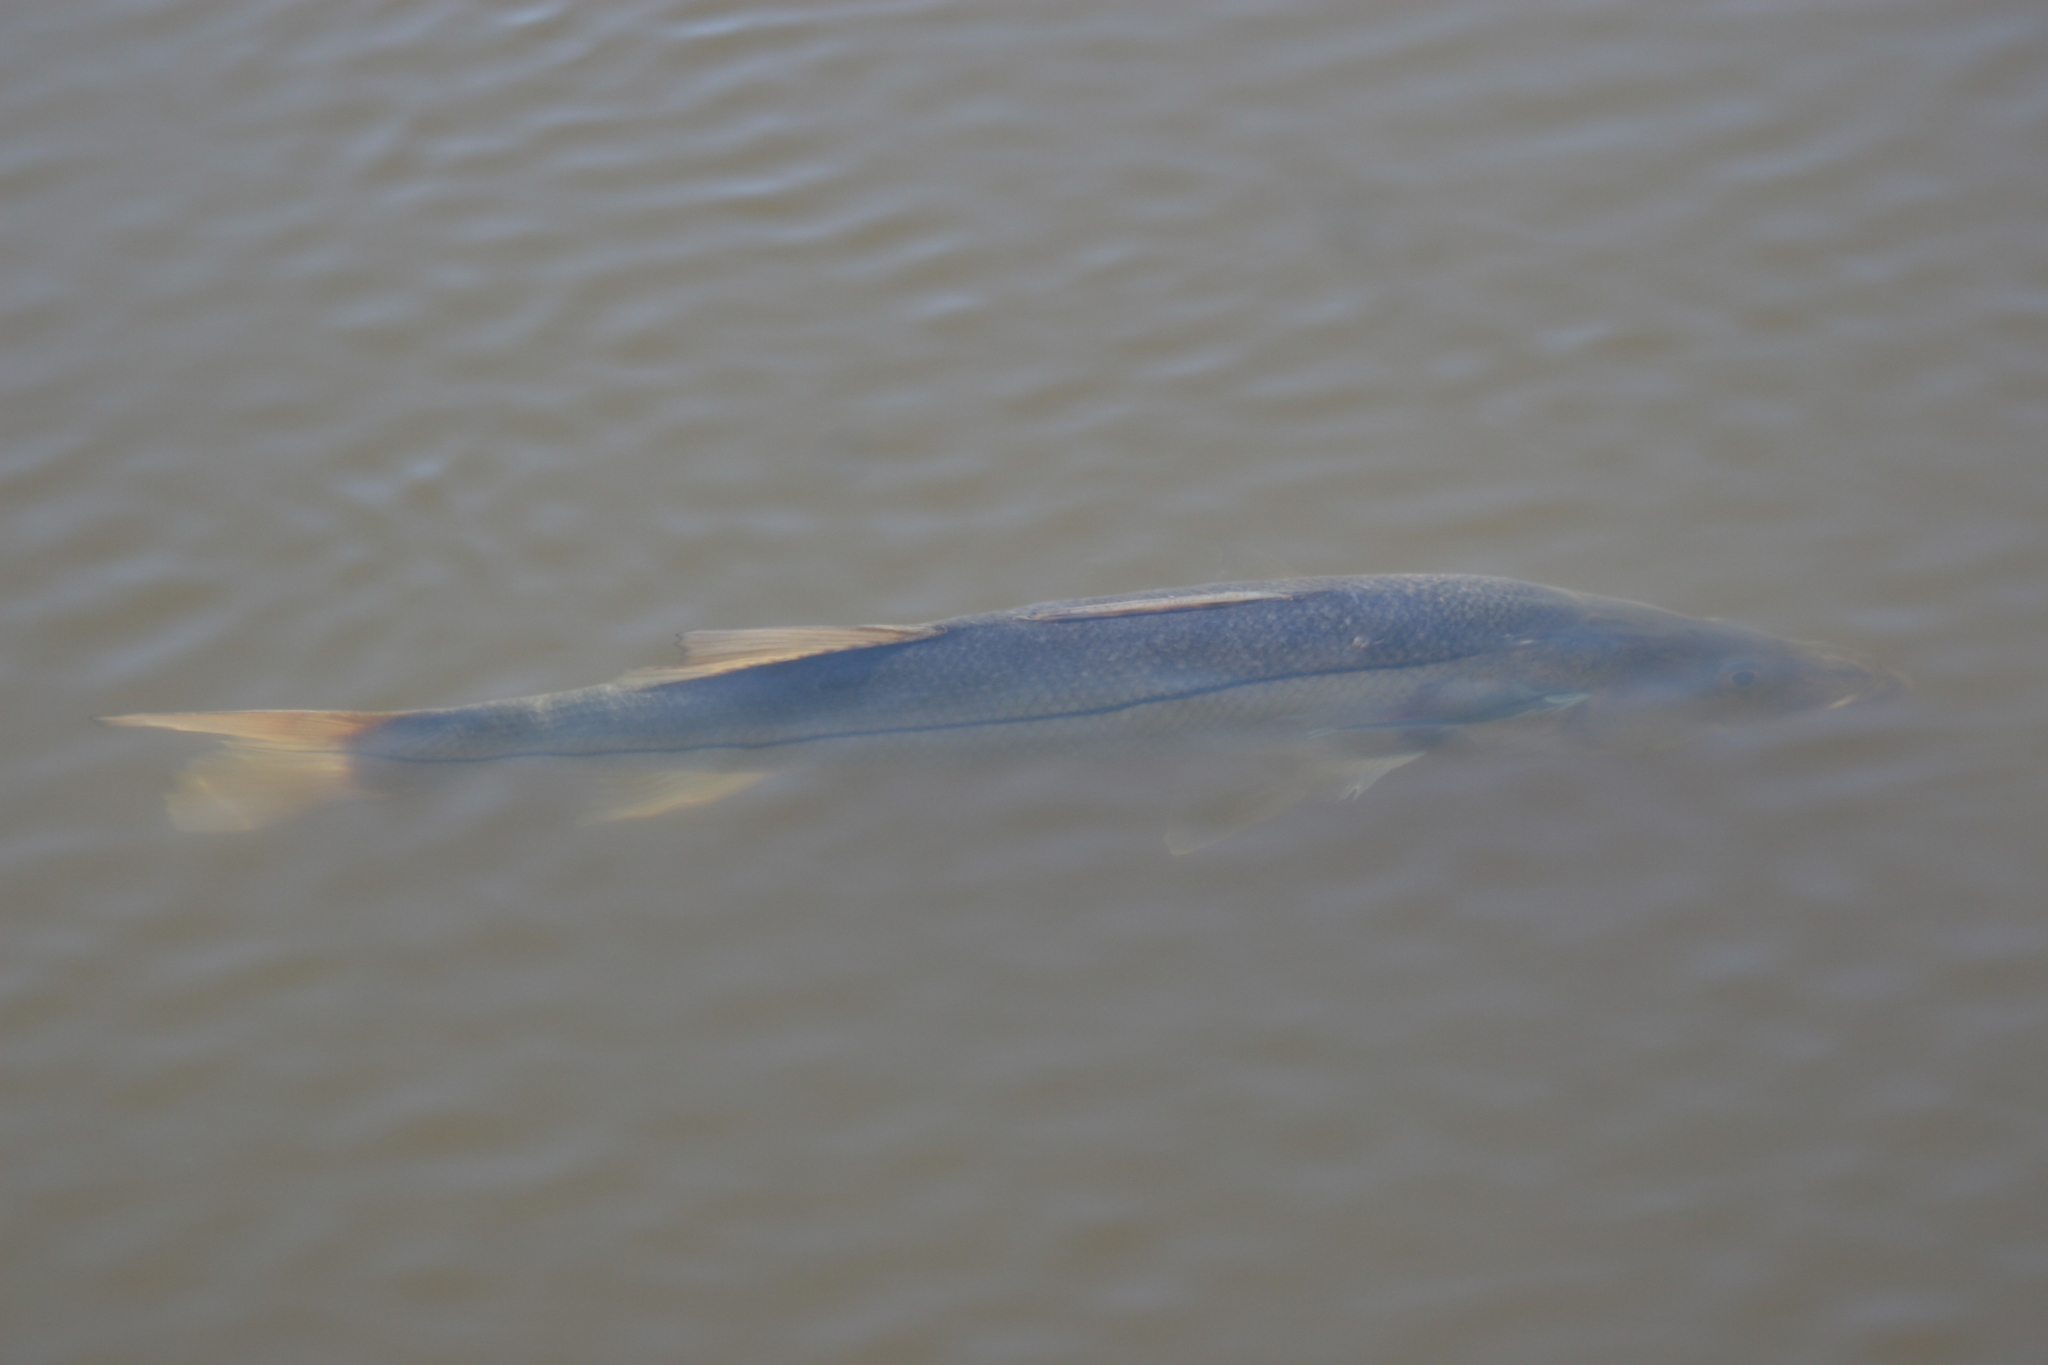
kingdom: Animalia
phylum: Chordata
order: Perciformes
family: Centropomidae
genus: Centropomus
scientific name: Centropomus undecimalis
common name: Snook
